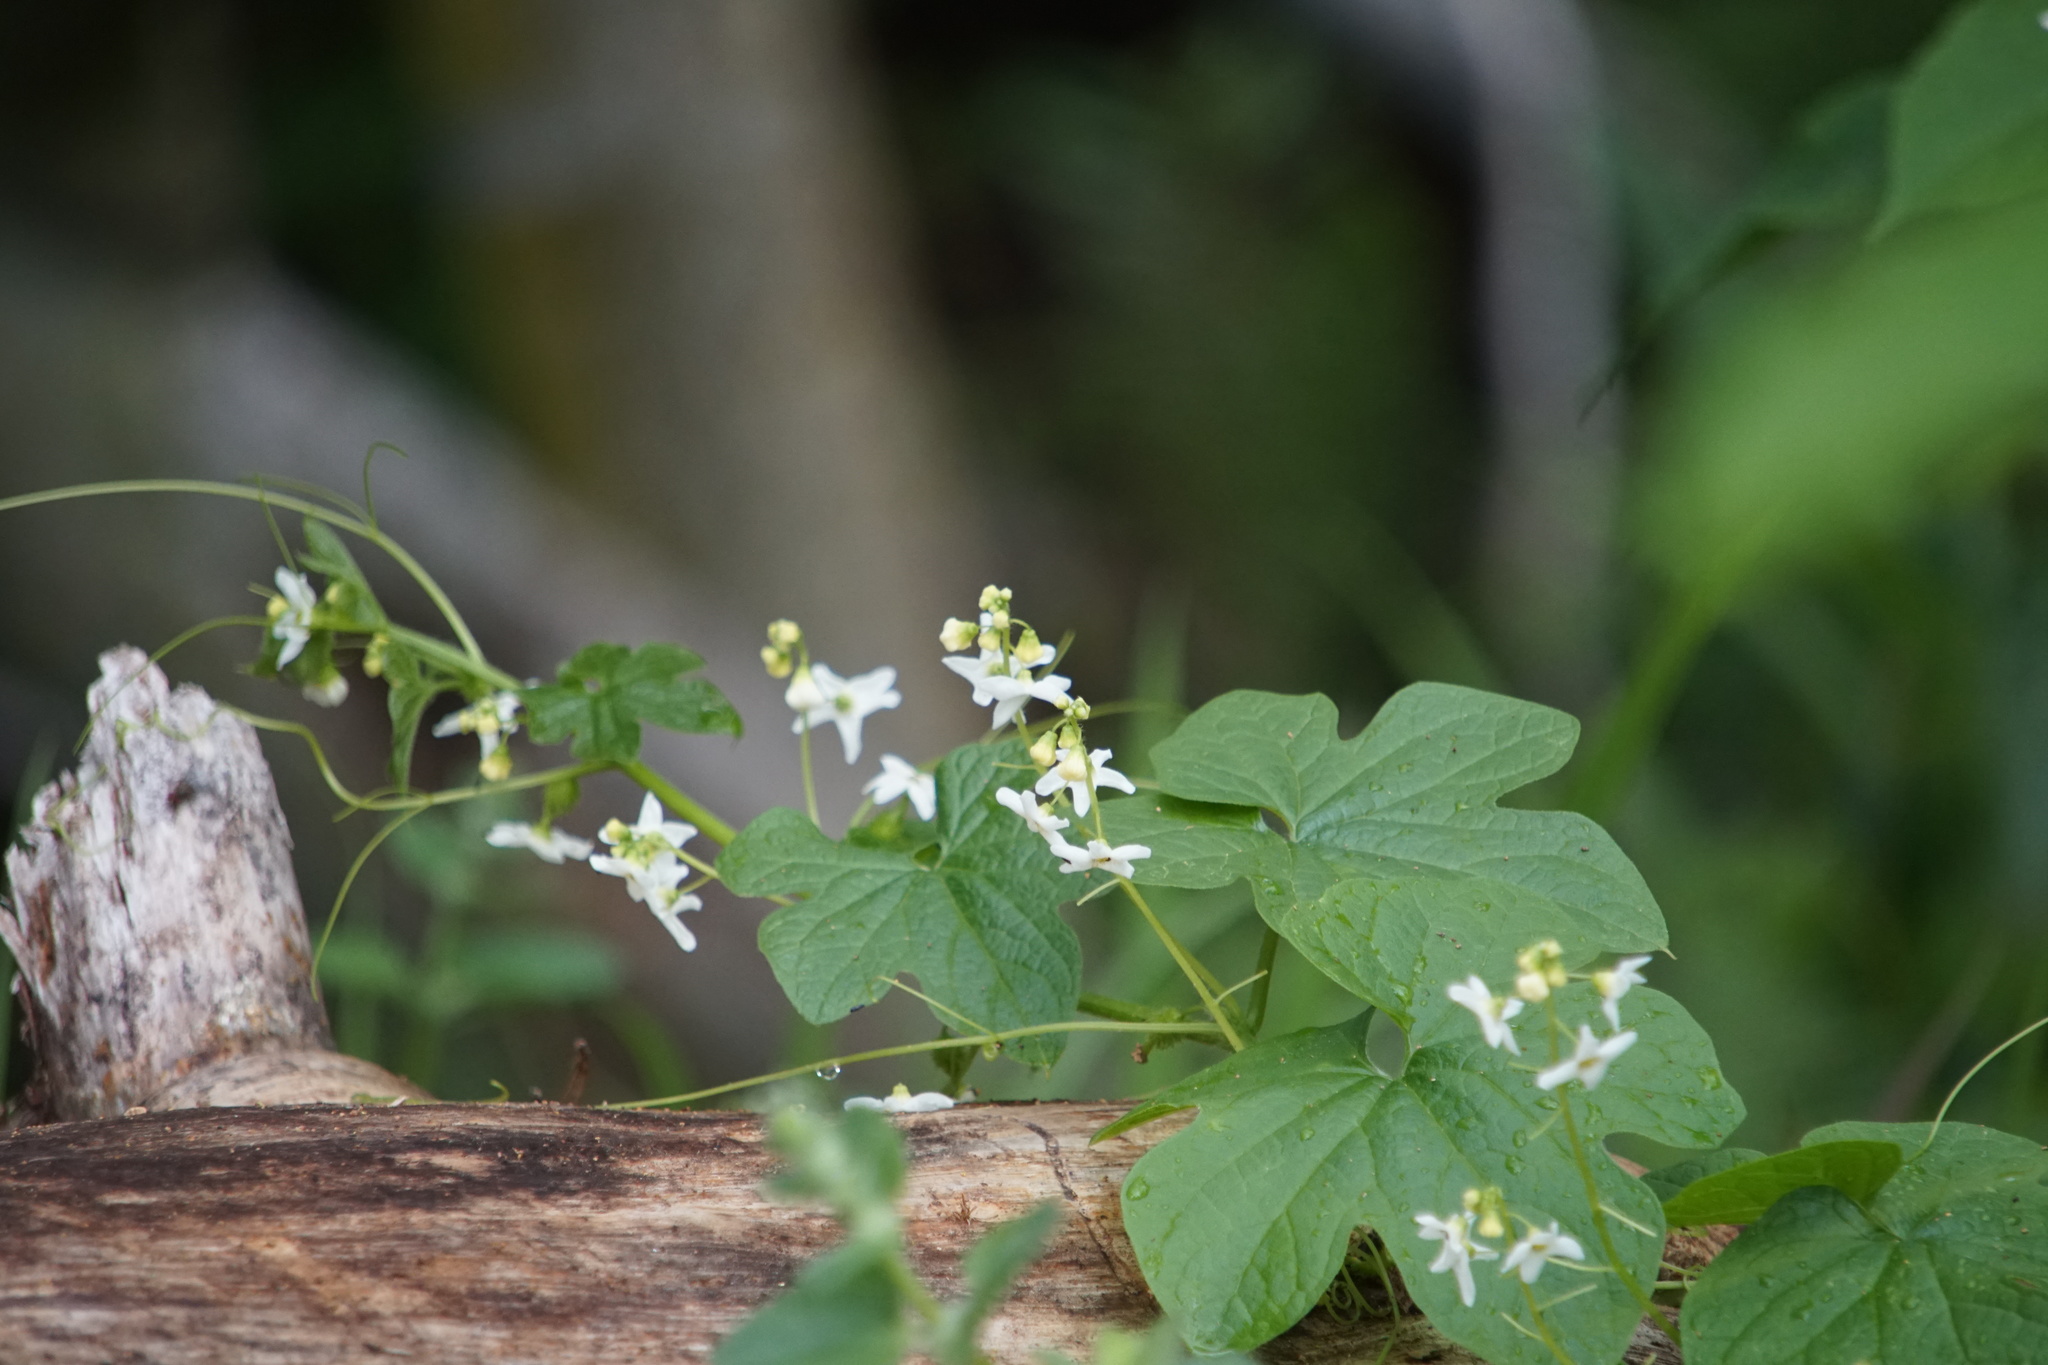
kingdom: Plantae
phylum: Tracheophyta
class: Magnoliopsida
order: Cucurbitales
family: Cucurbitaceae
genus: Marah
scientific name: Marah fabacea
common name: California manroot
